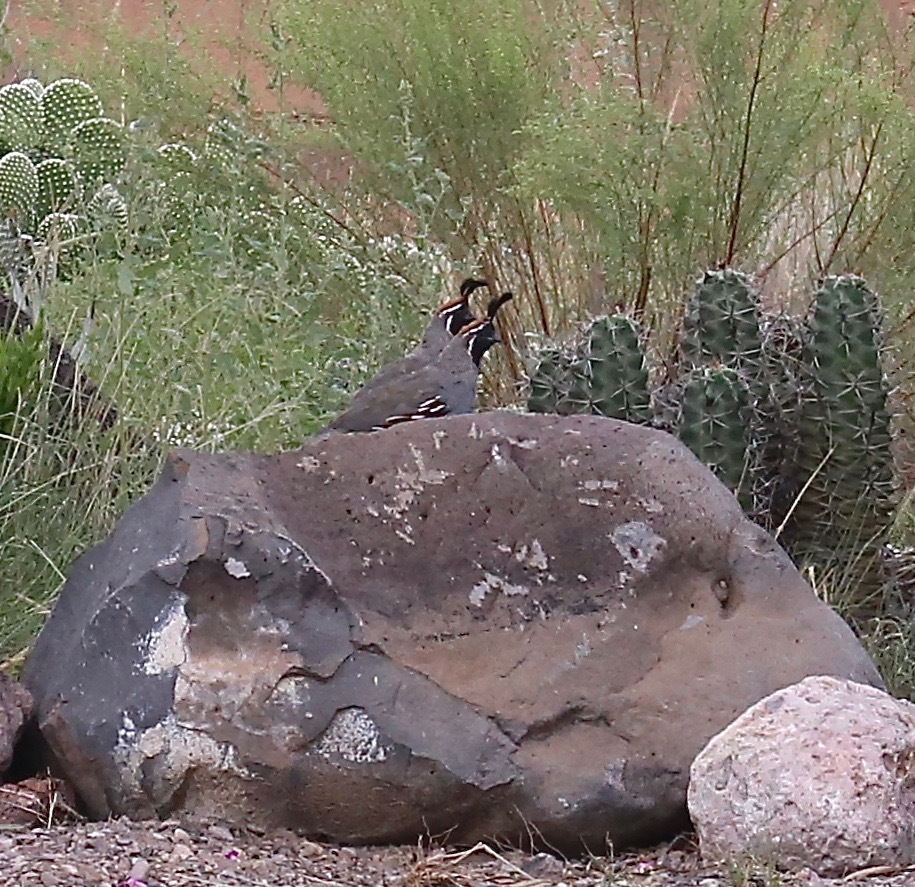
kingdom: Animalia
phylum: Chordata
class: Aves
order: Galliformes
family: Odontophoridae
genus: Callipepla
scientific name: Callipepla gambelii
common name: Gambel's quail
